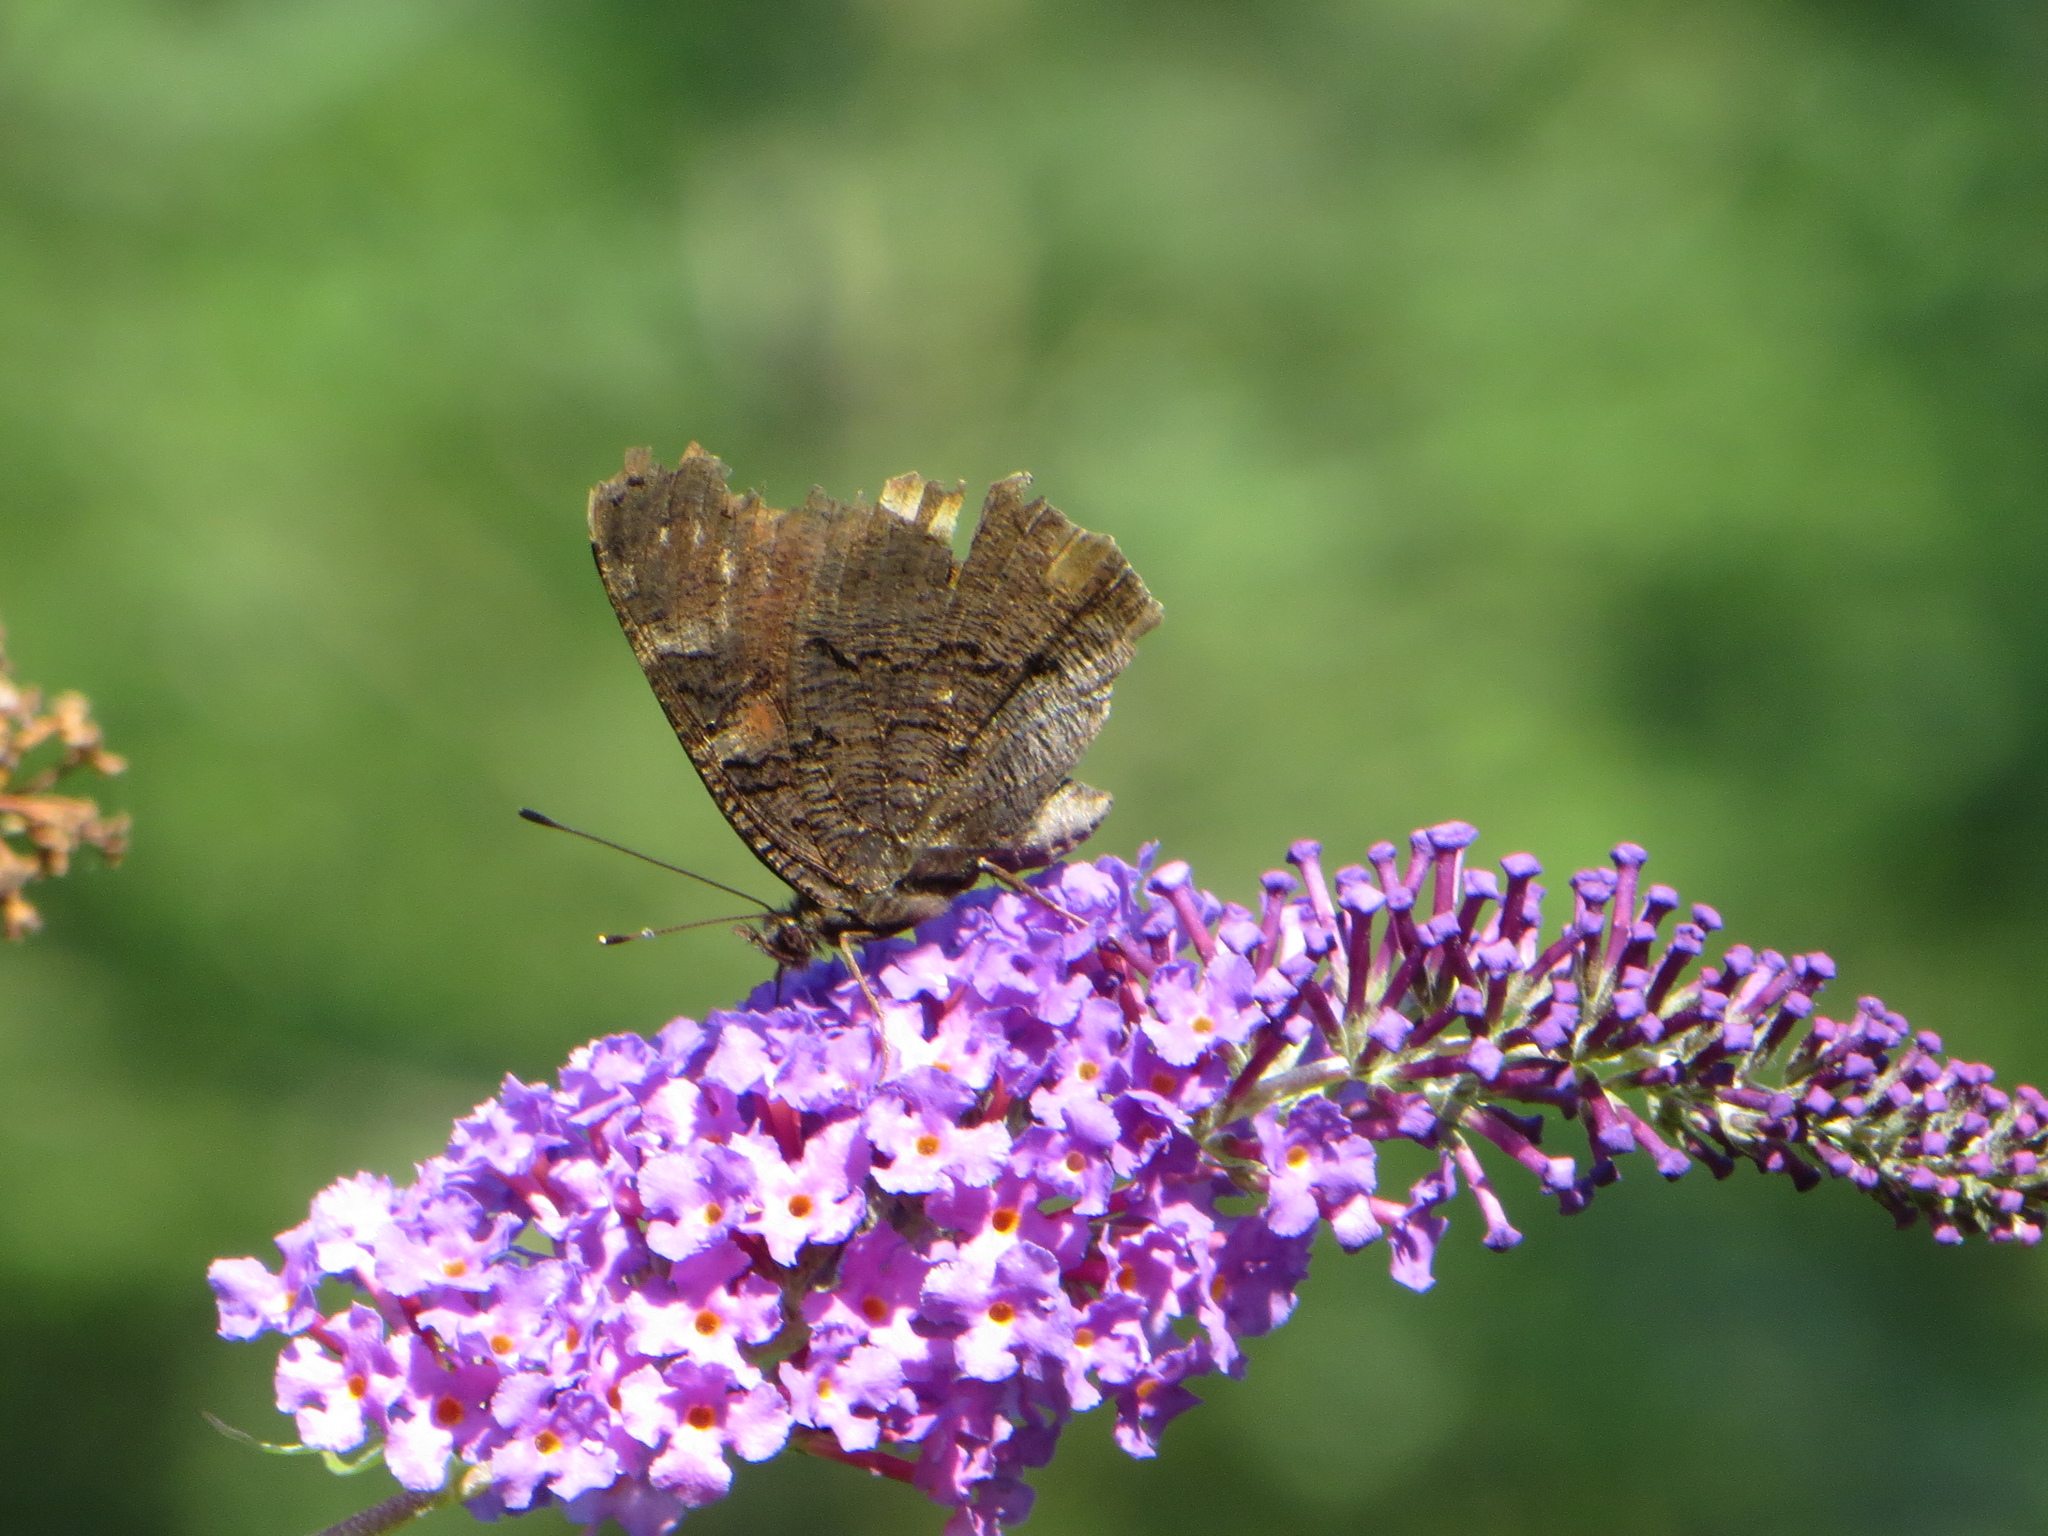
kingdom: Animalia
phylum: Arthropoda
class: Insecta
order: Lepidoptera
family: Nymphalidae
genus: Aglais
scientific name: Aglais io
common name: Peacock
